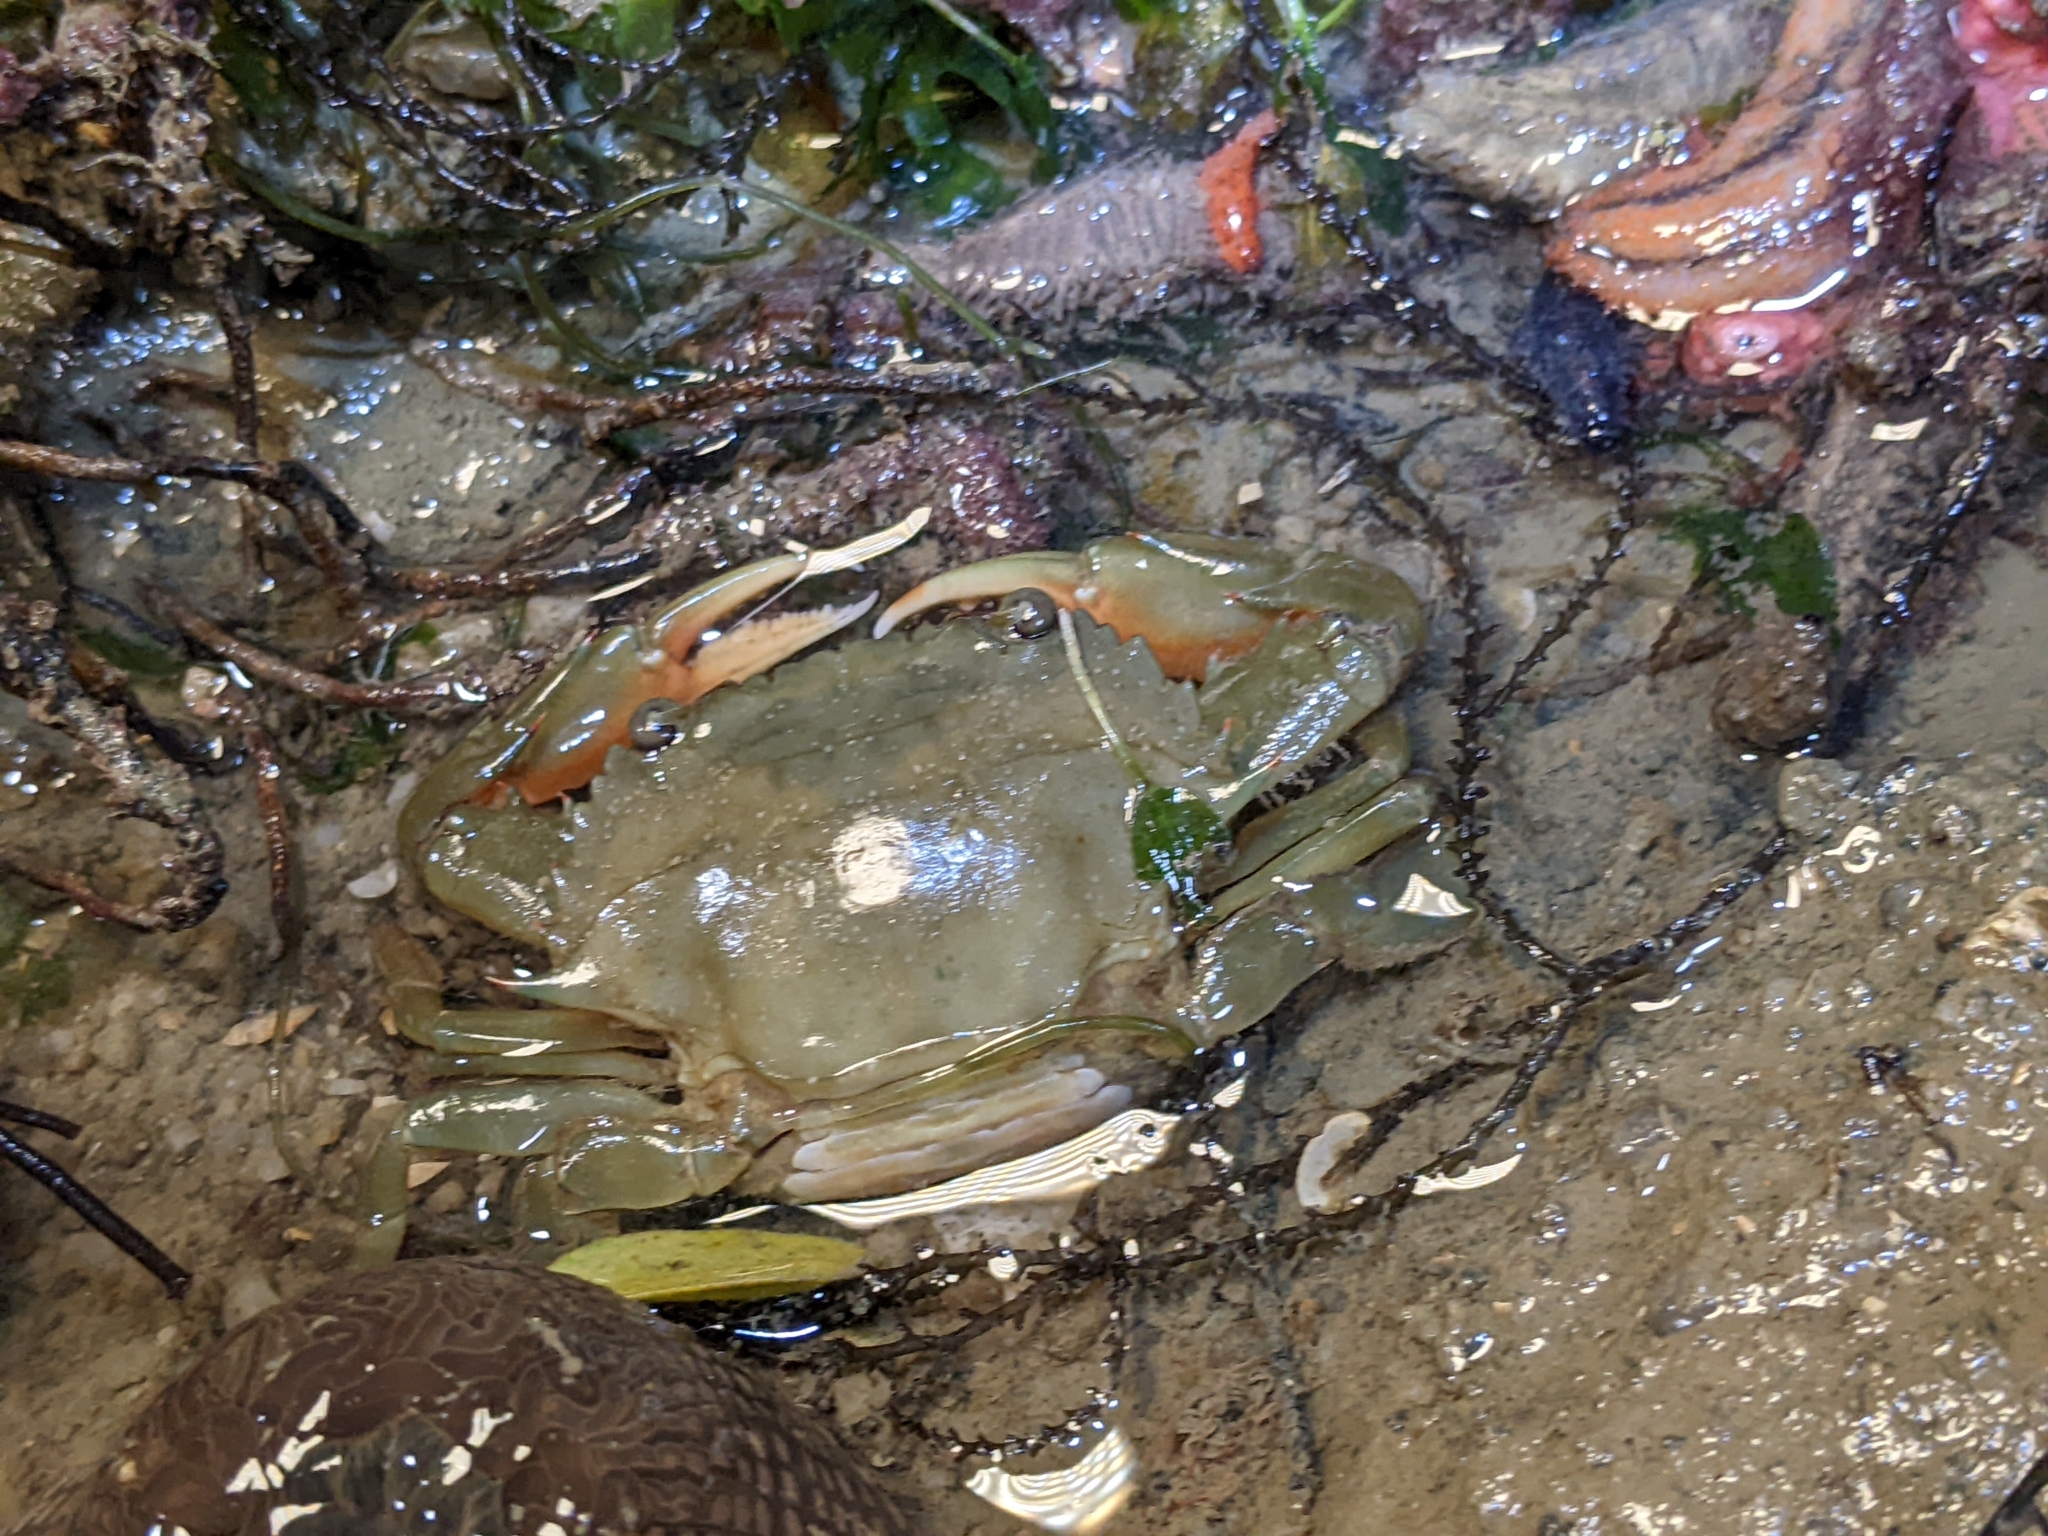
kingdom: Animalia
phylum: Arthropoda
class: Malacostraca
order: Decapoda
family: Portunidae
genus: Charybdis
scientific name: Charybdis anisodon
